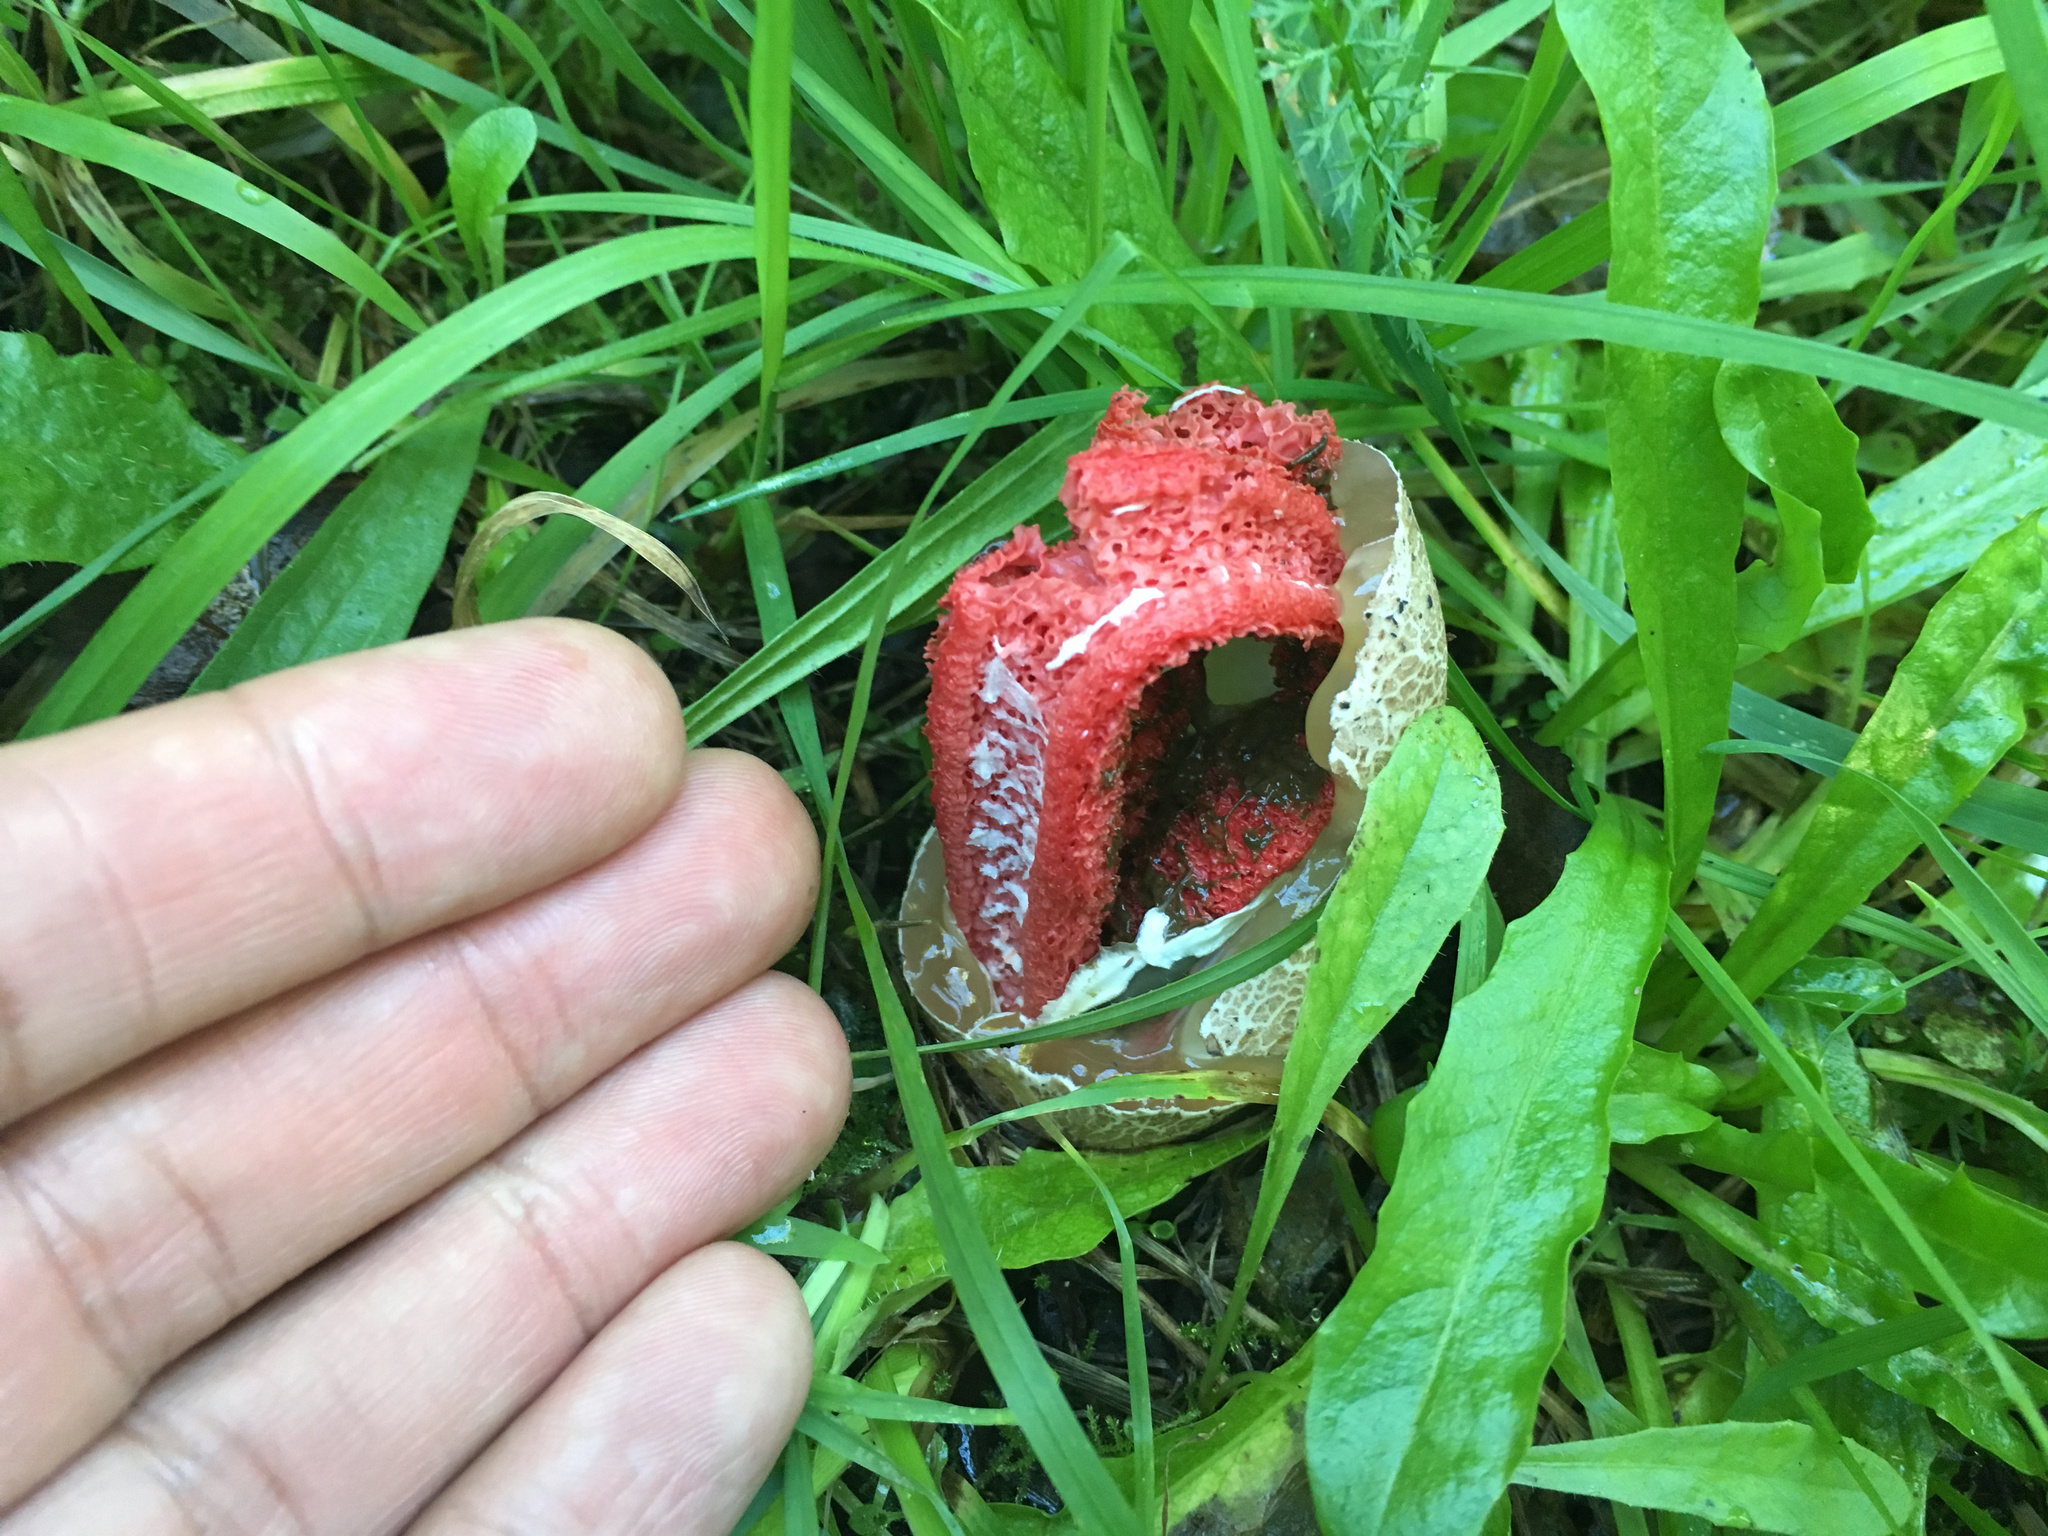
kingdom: Fungi
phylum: Basidiomycota
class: Agaricomycetes
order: Phallales
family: Phallaceae
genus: Clathrus
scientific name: Clathrus archeri
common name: Devil's fingers
